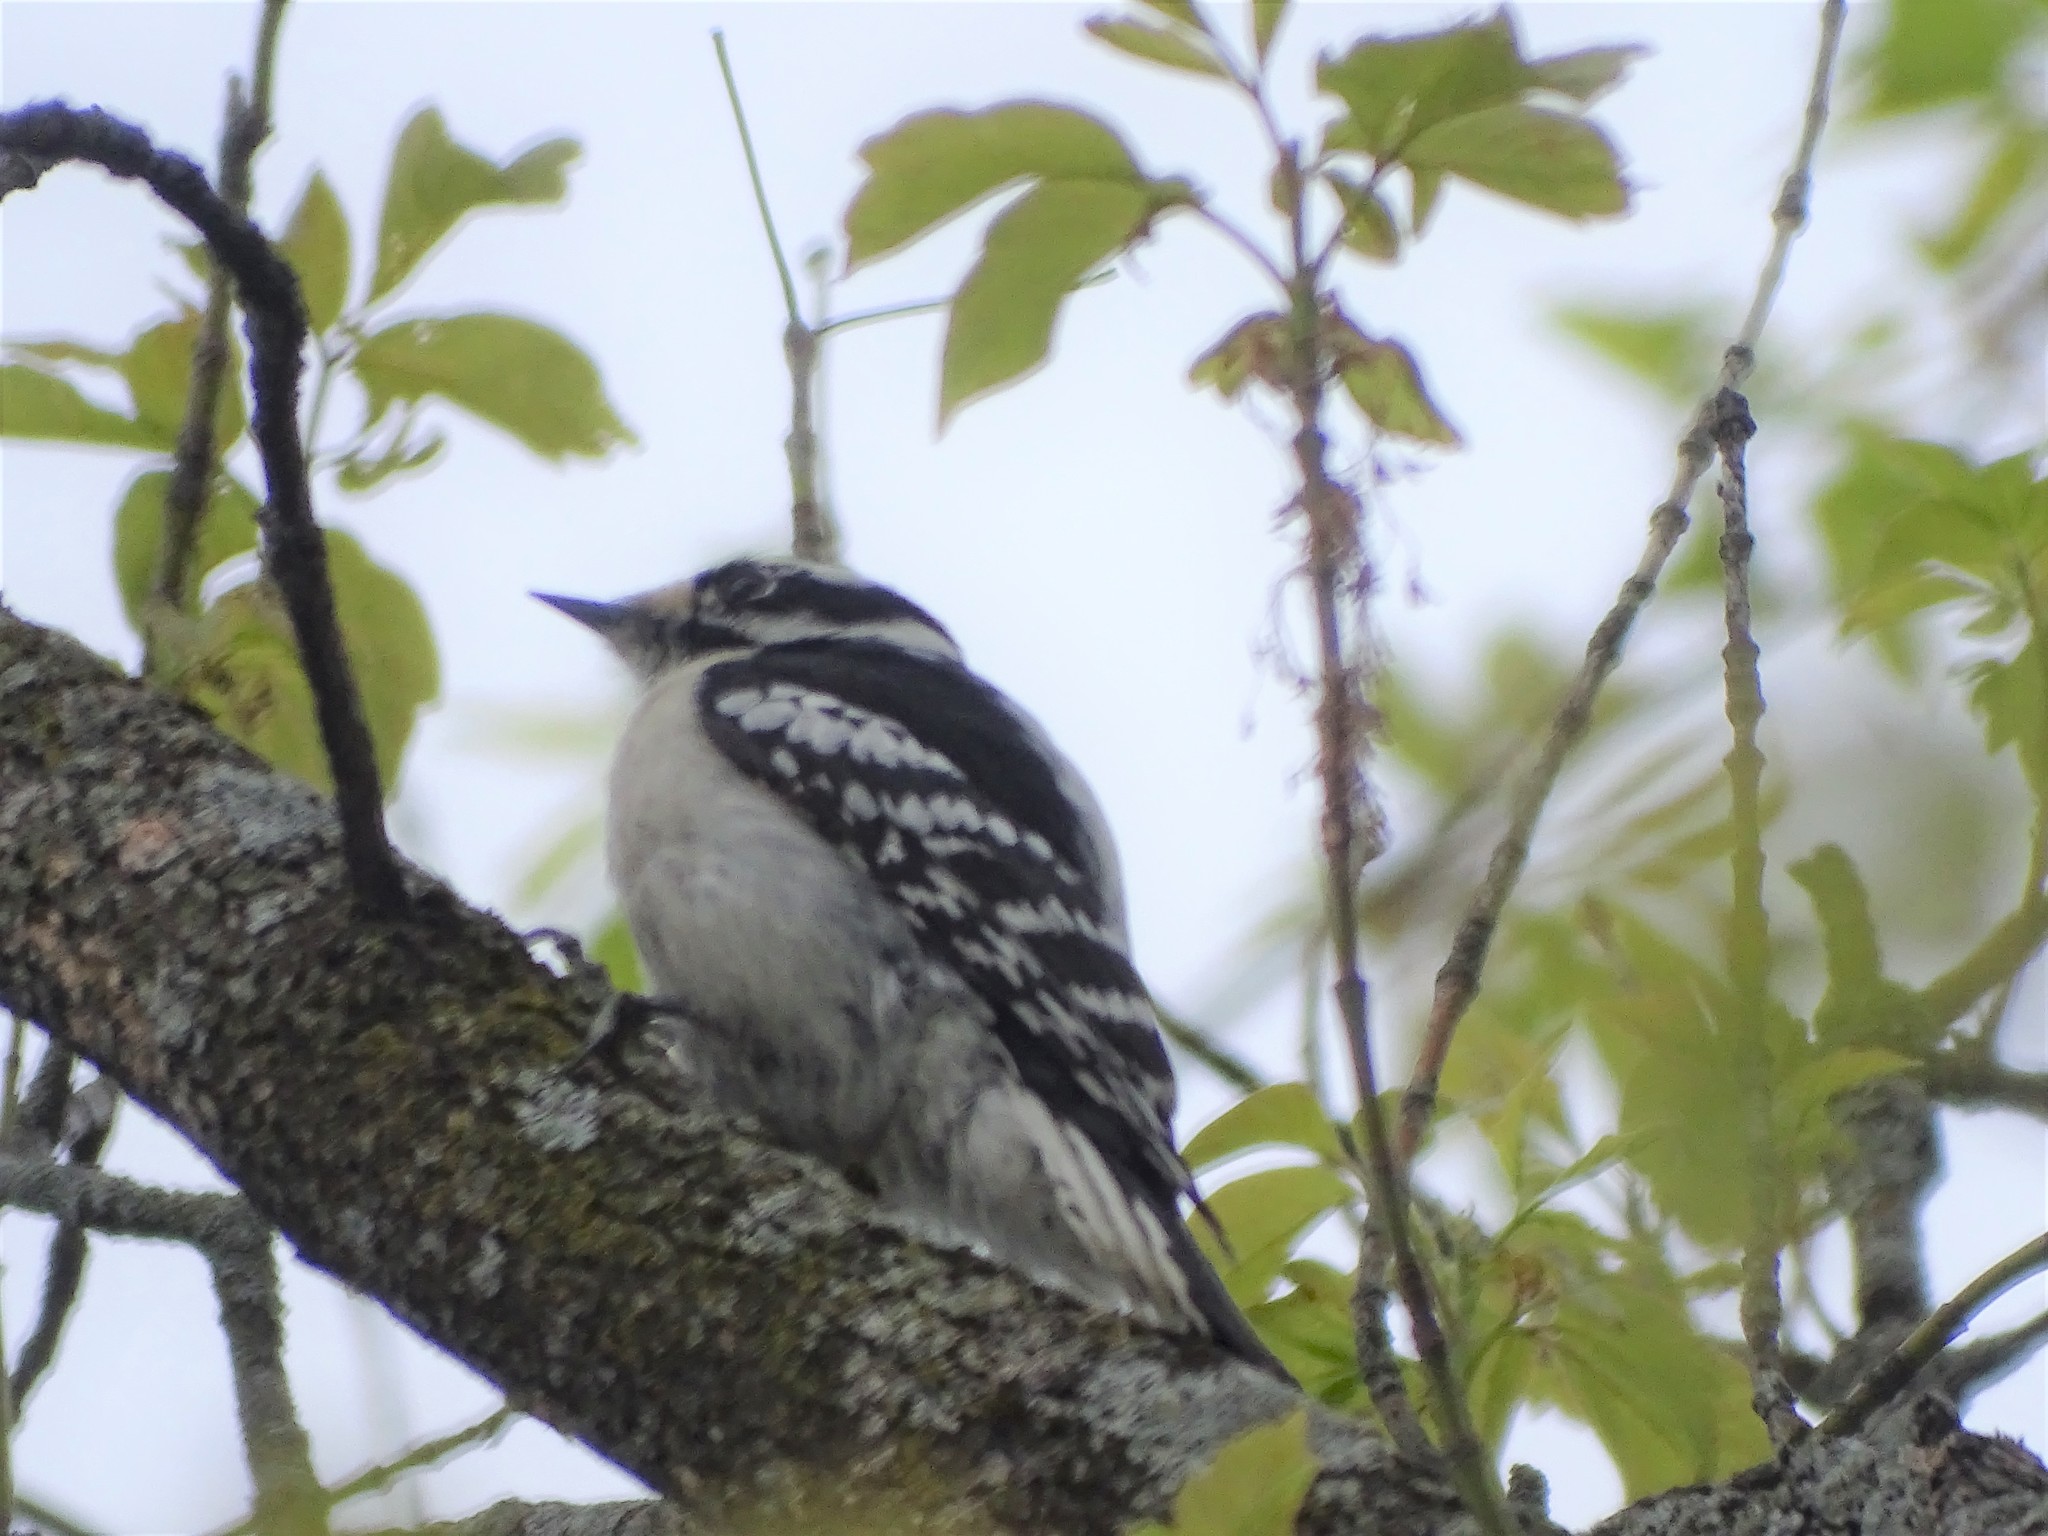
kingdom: Animalia
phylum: Chordata
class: Aves
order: Piciformes
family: Picidae
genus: Dryobates
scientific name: Dryobates pubescens
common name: Downy woodpecker
